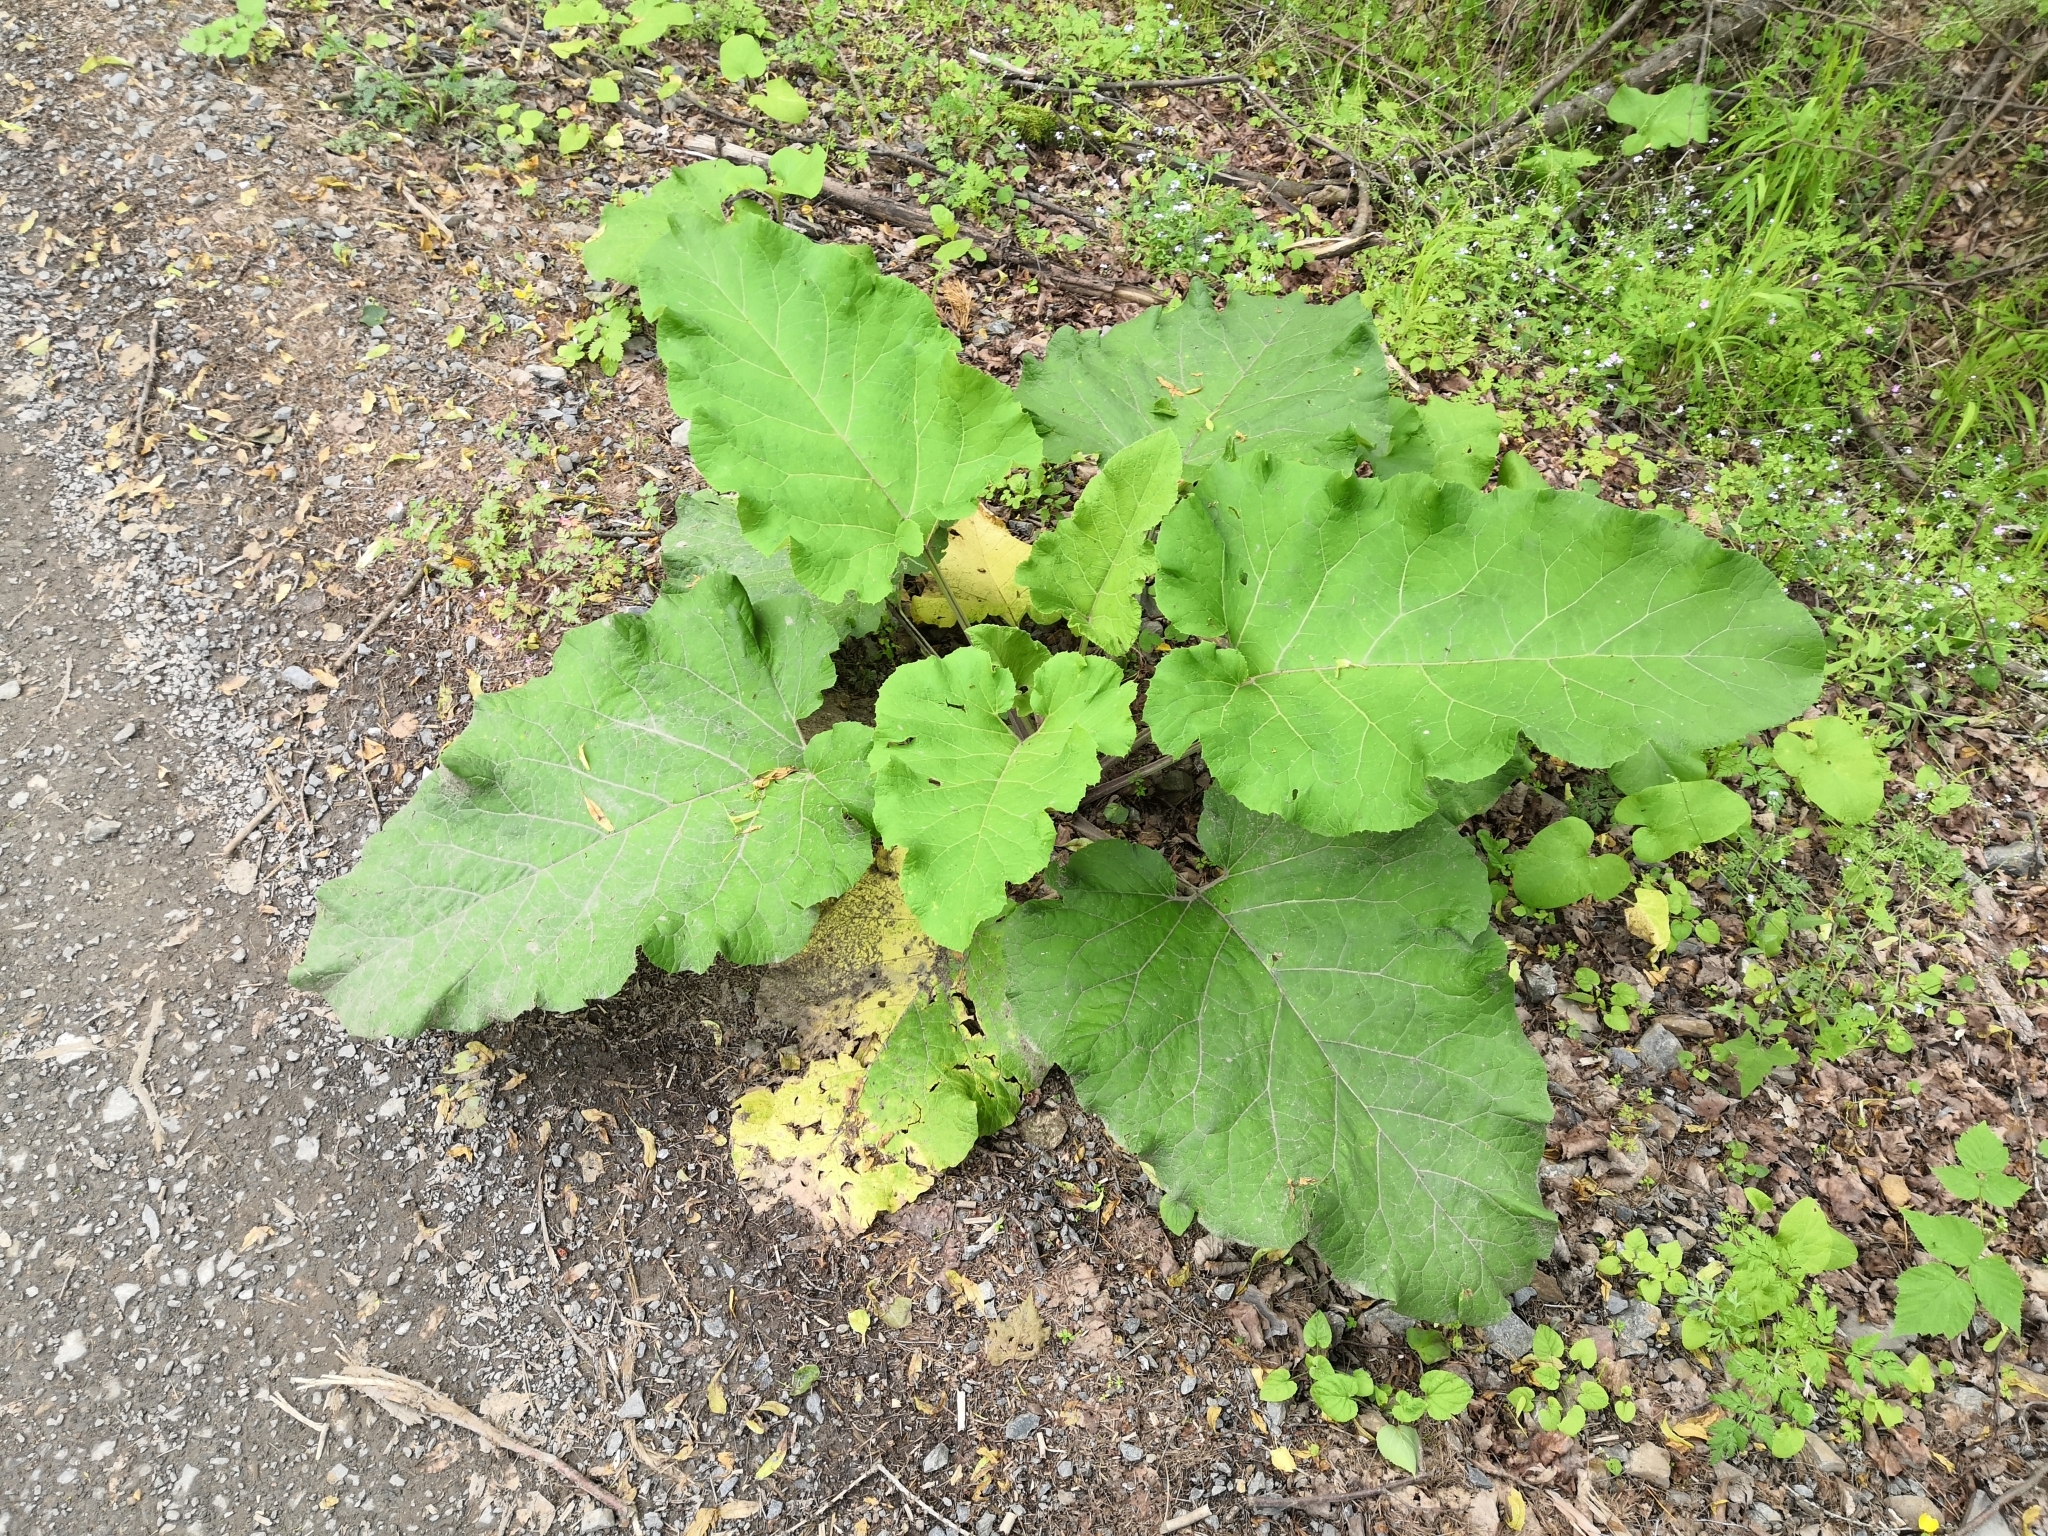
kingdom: Plantae
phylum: Tracheophyta
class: Magnoliopsida
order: Asterales
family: Asteraceae
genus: Arctium
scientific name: Arctium
